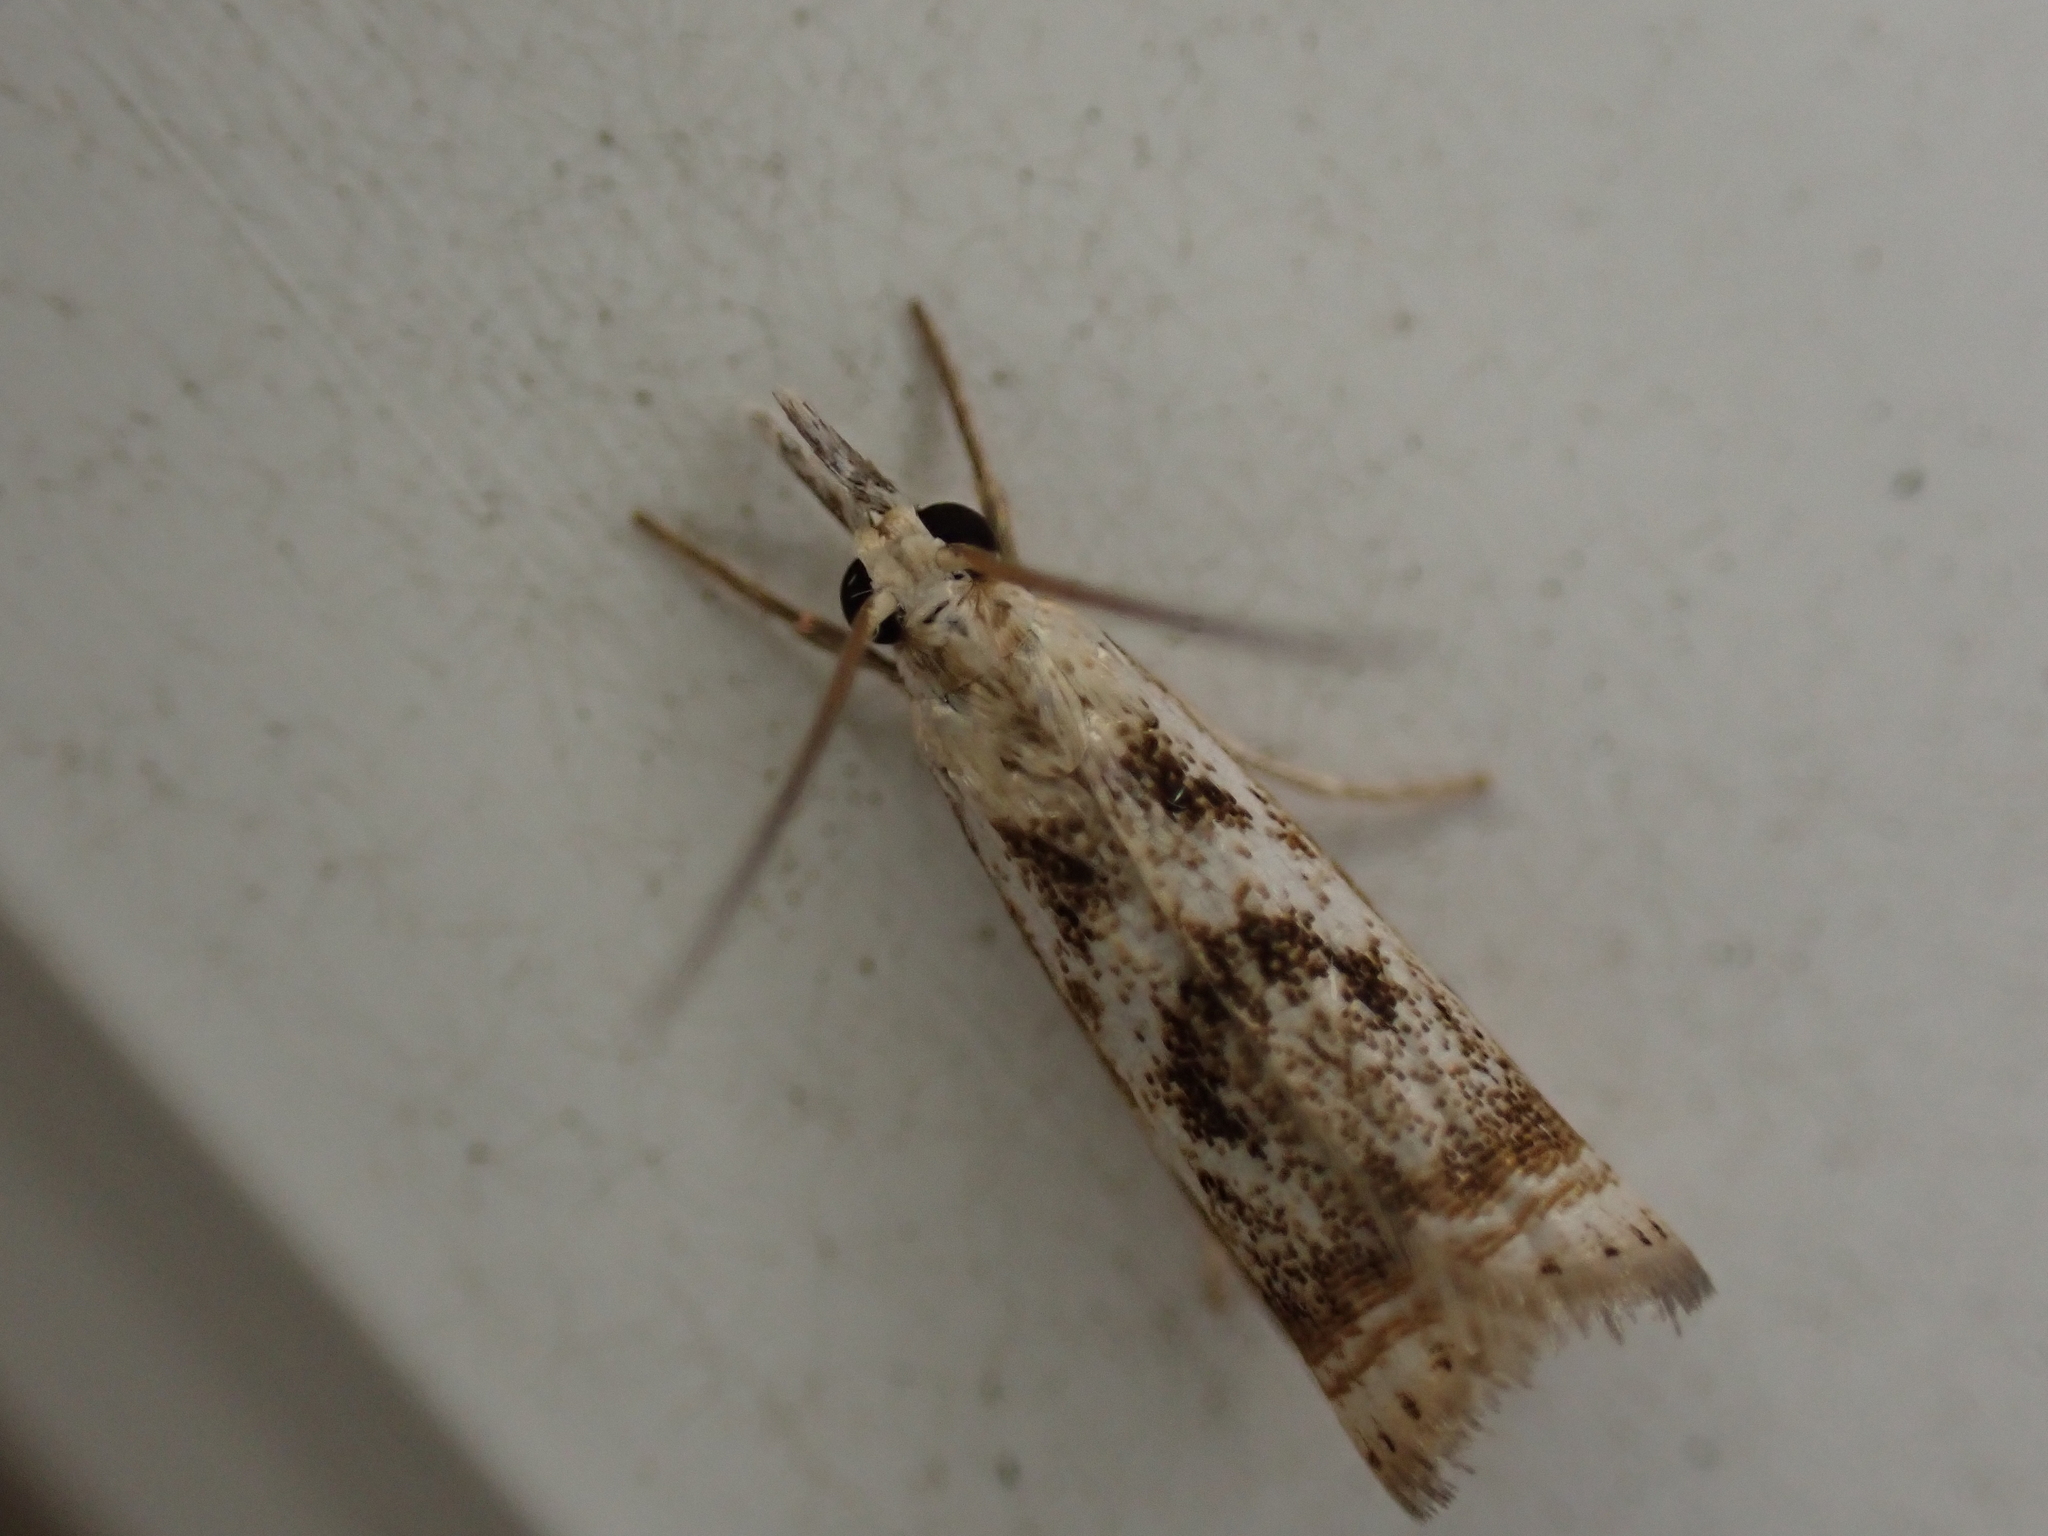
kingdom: Animalia
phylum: Arthropoda
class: Insecta
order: Lepidoptera
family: Crambidae
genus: Microcrambus
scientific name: Microcrambus elegans
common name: Elegant grass-veneer
